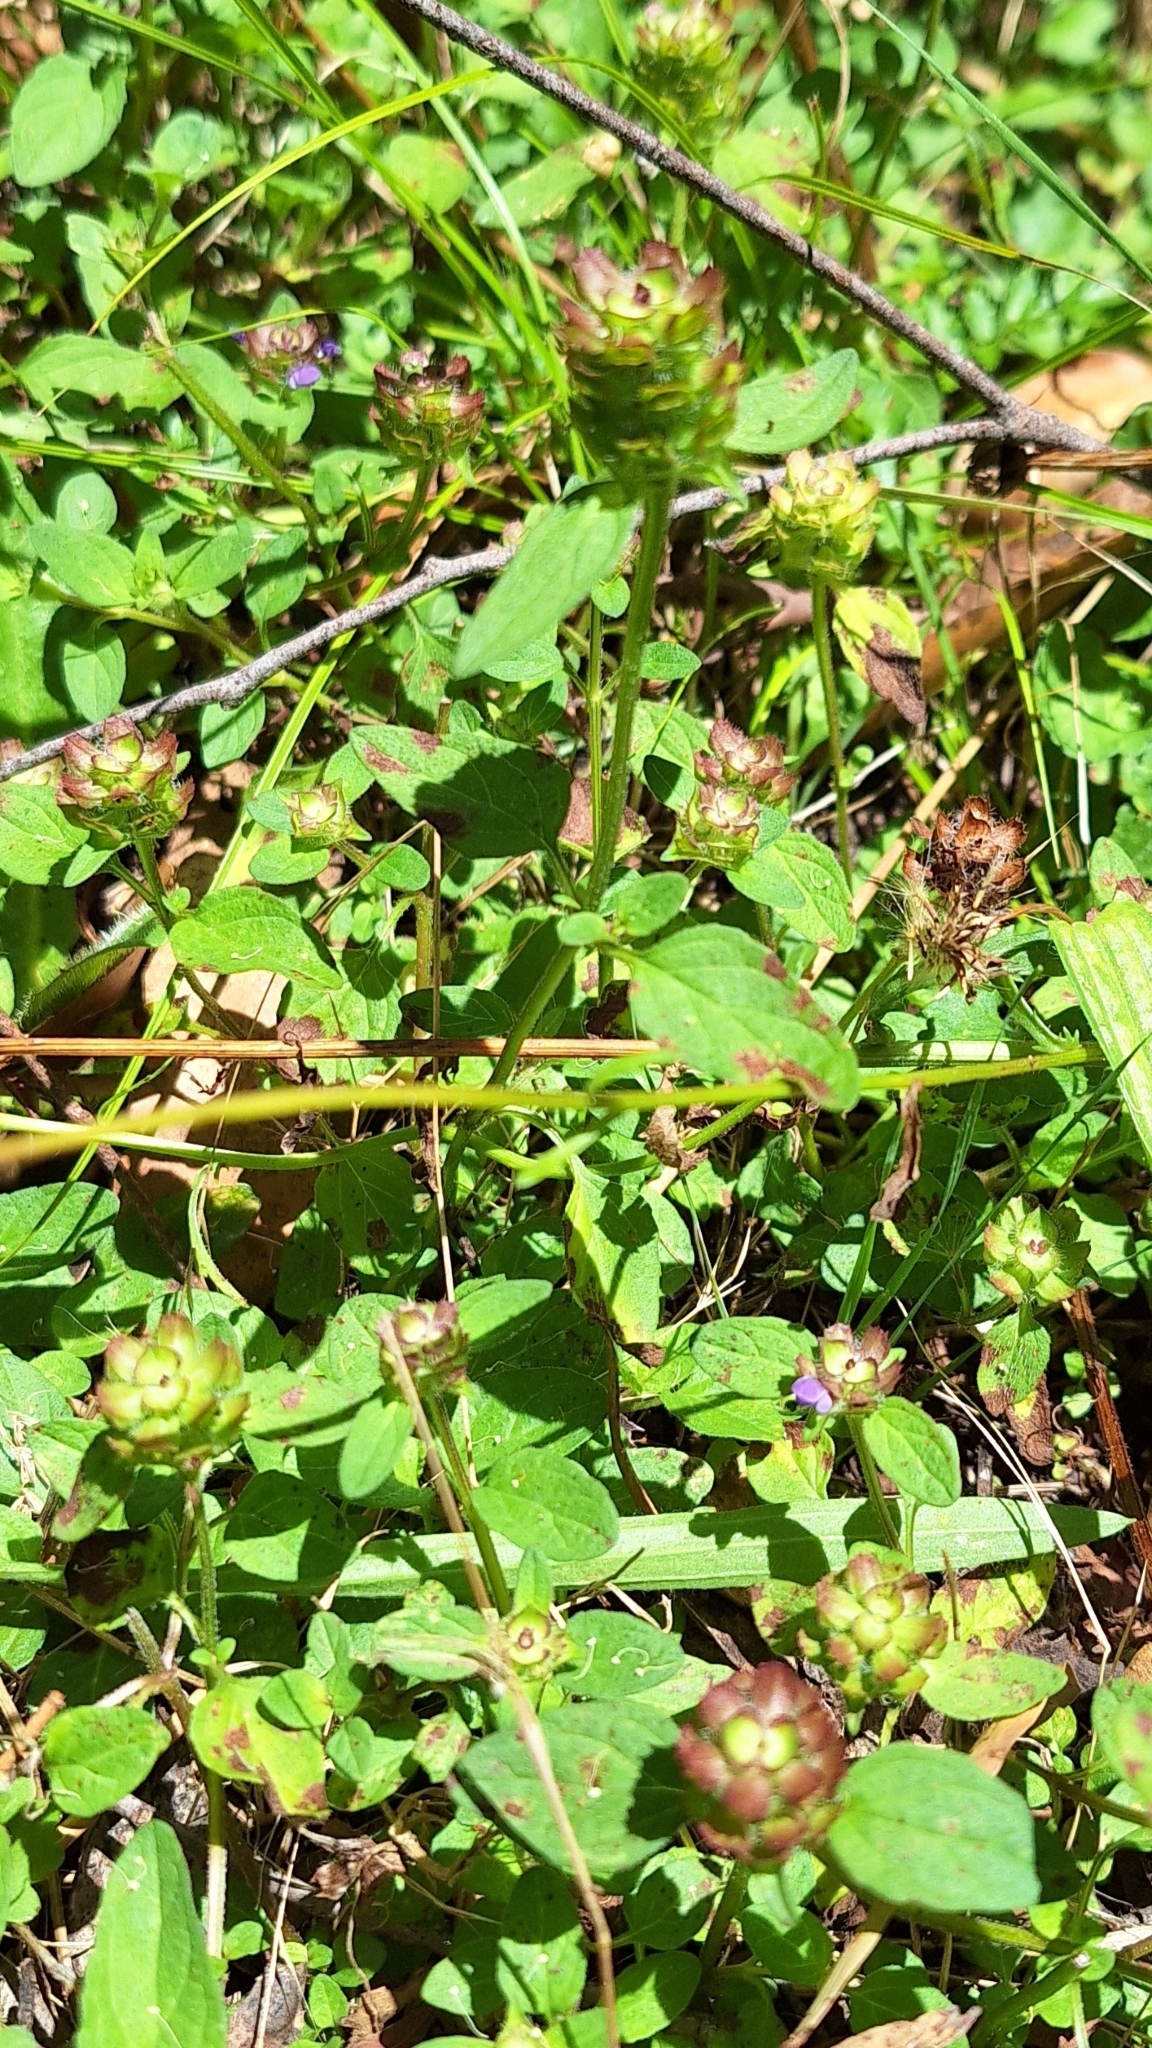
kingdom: Plantae
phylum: Tracheophyta
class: Magnoliopsida
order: Lamiales
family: Lamiaceae
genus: Prunella
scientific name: Prunella vulgaris
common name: Heal-all
